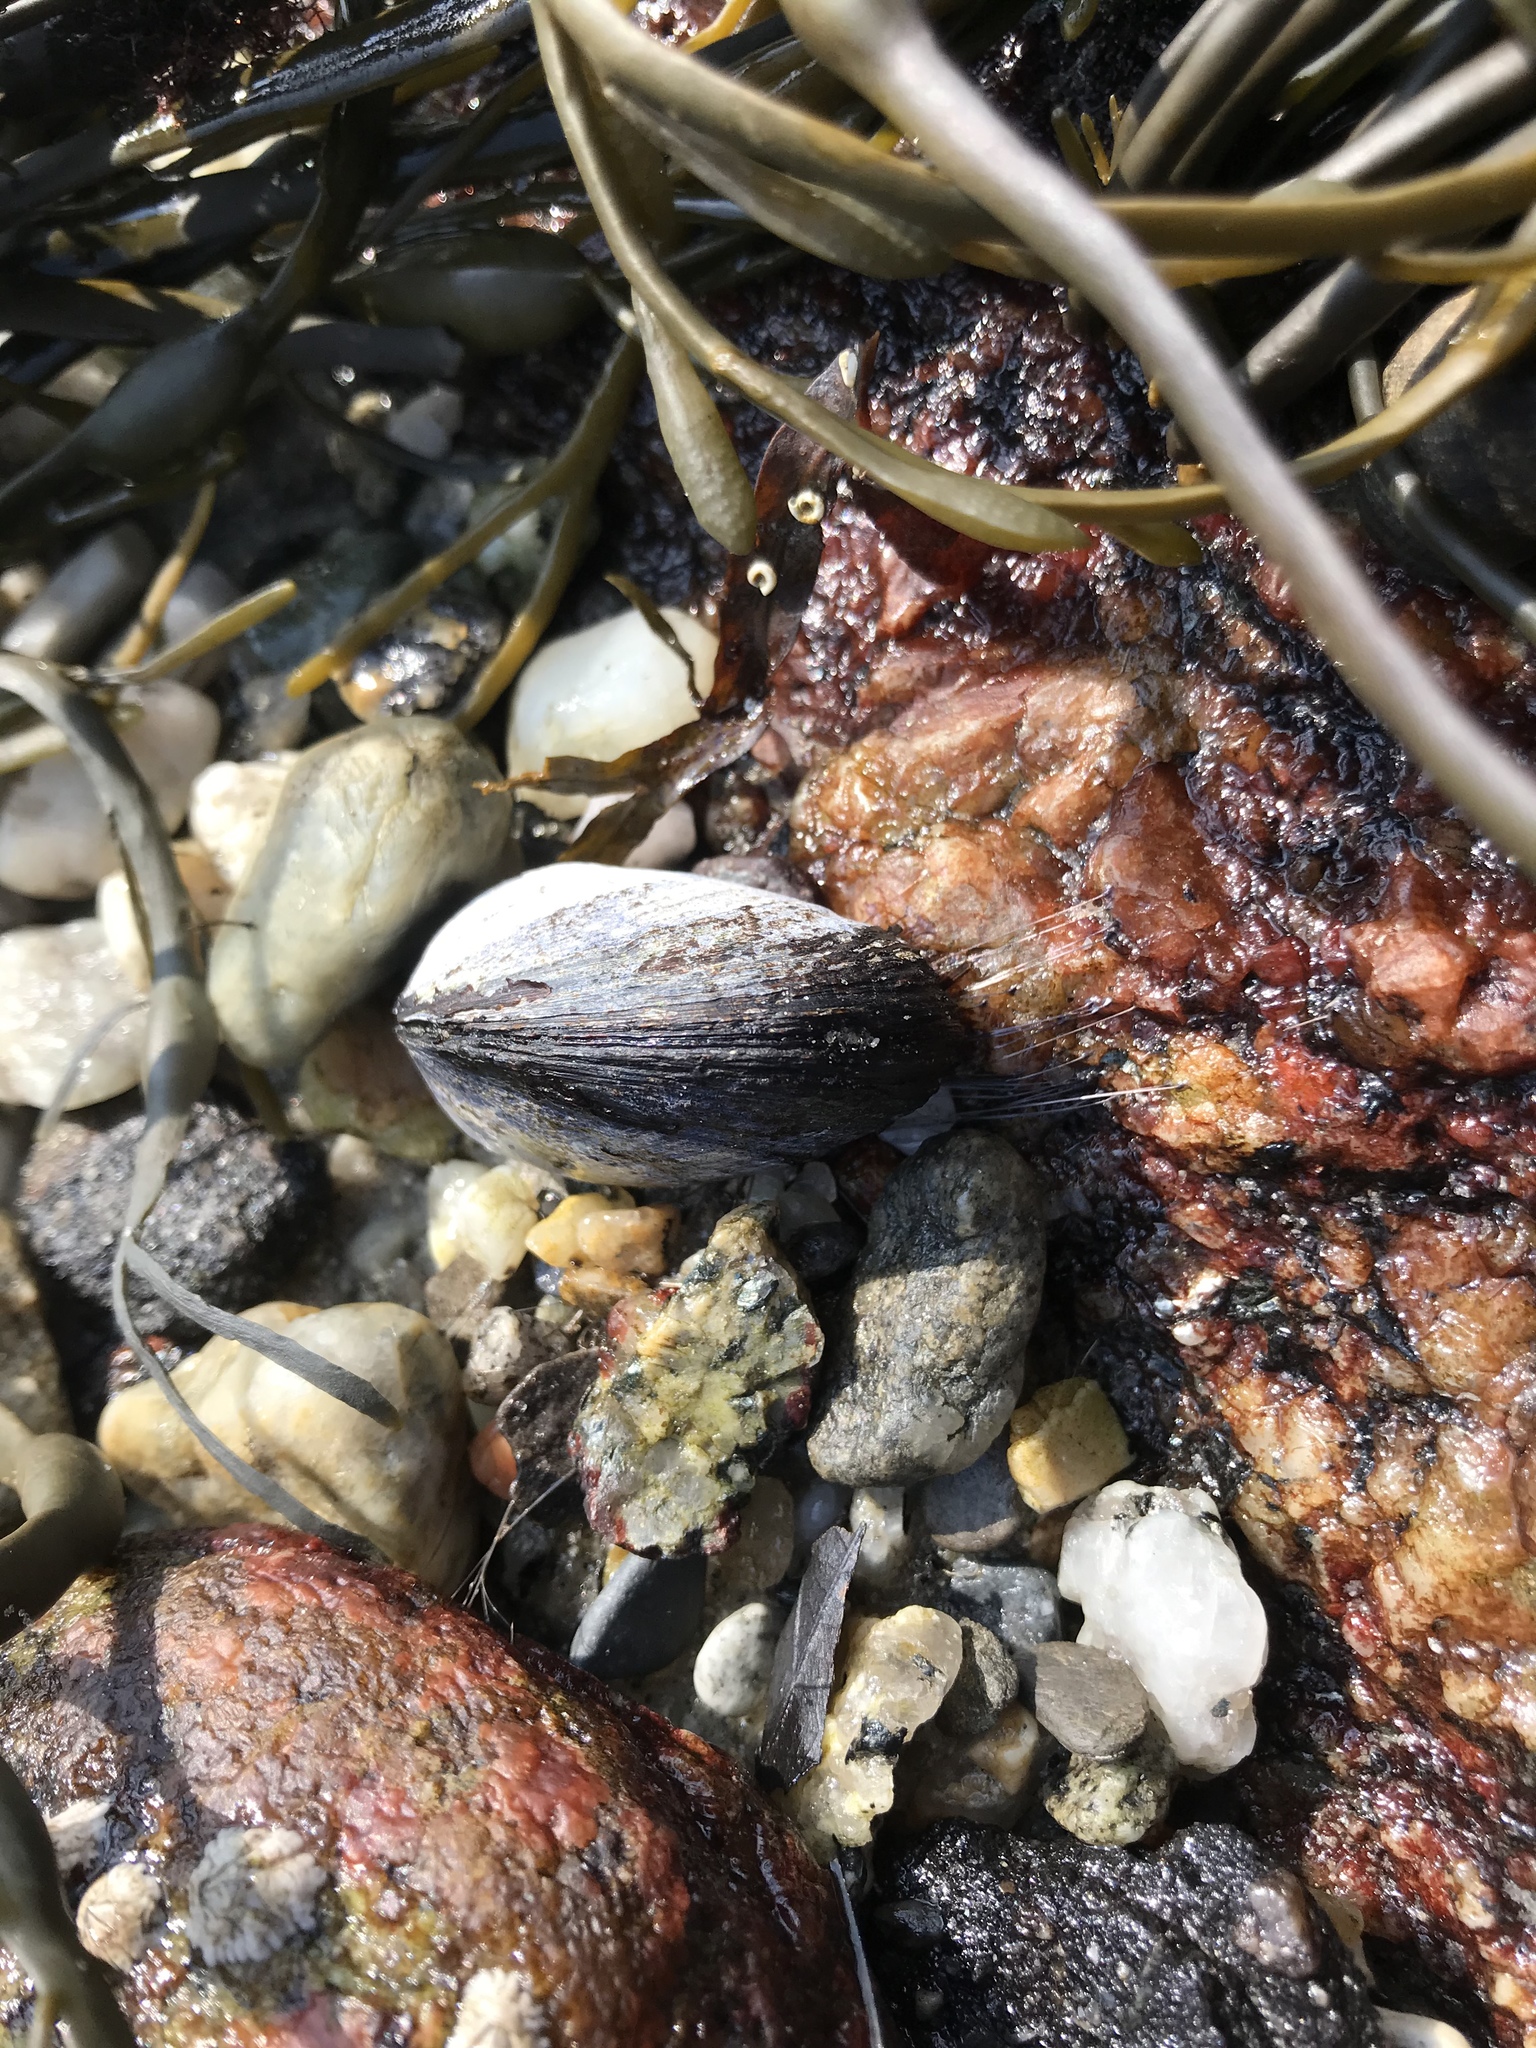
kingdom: Animalia
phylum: Mollusca
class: Bivalvia
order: Mytilida
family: Mytilidae
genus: Mytilus
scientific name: Mytilus edulis
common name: Blue mussel
